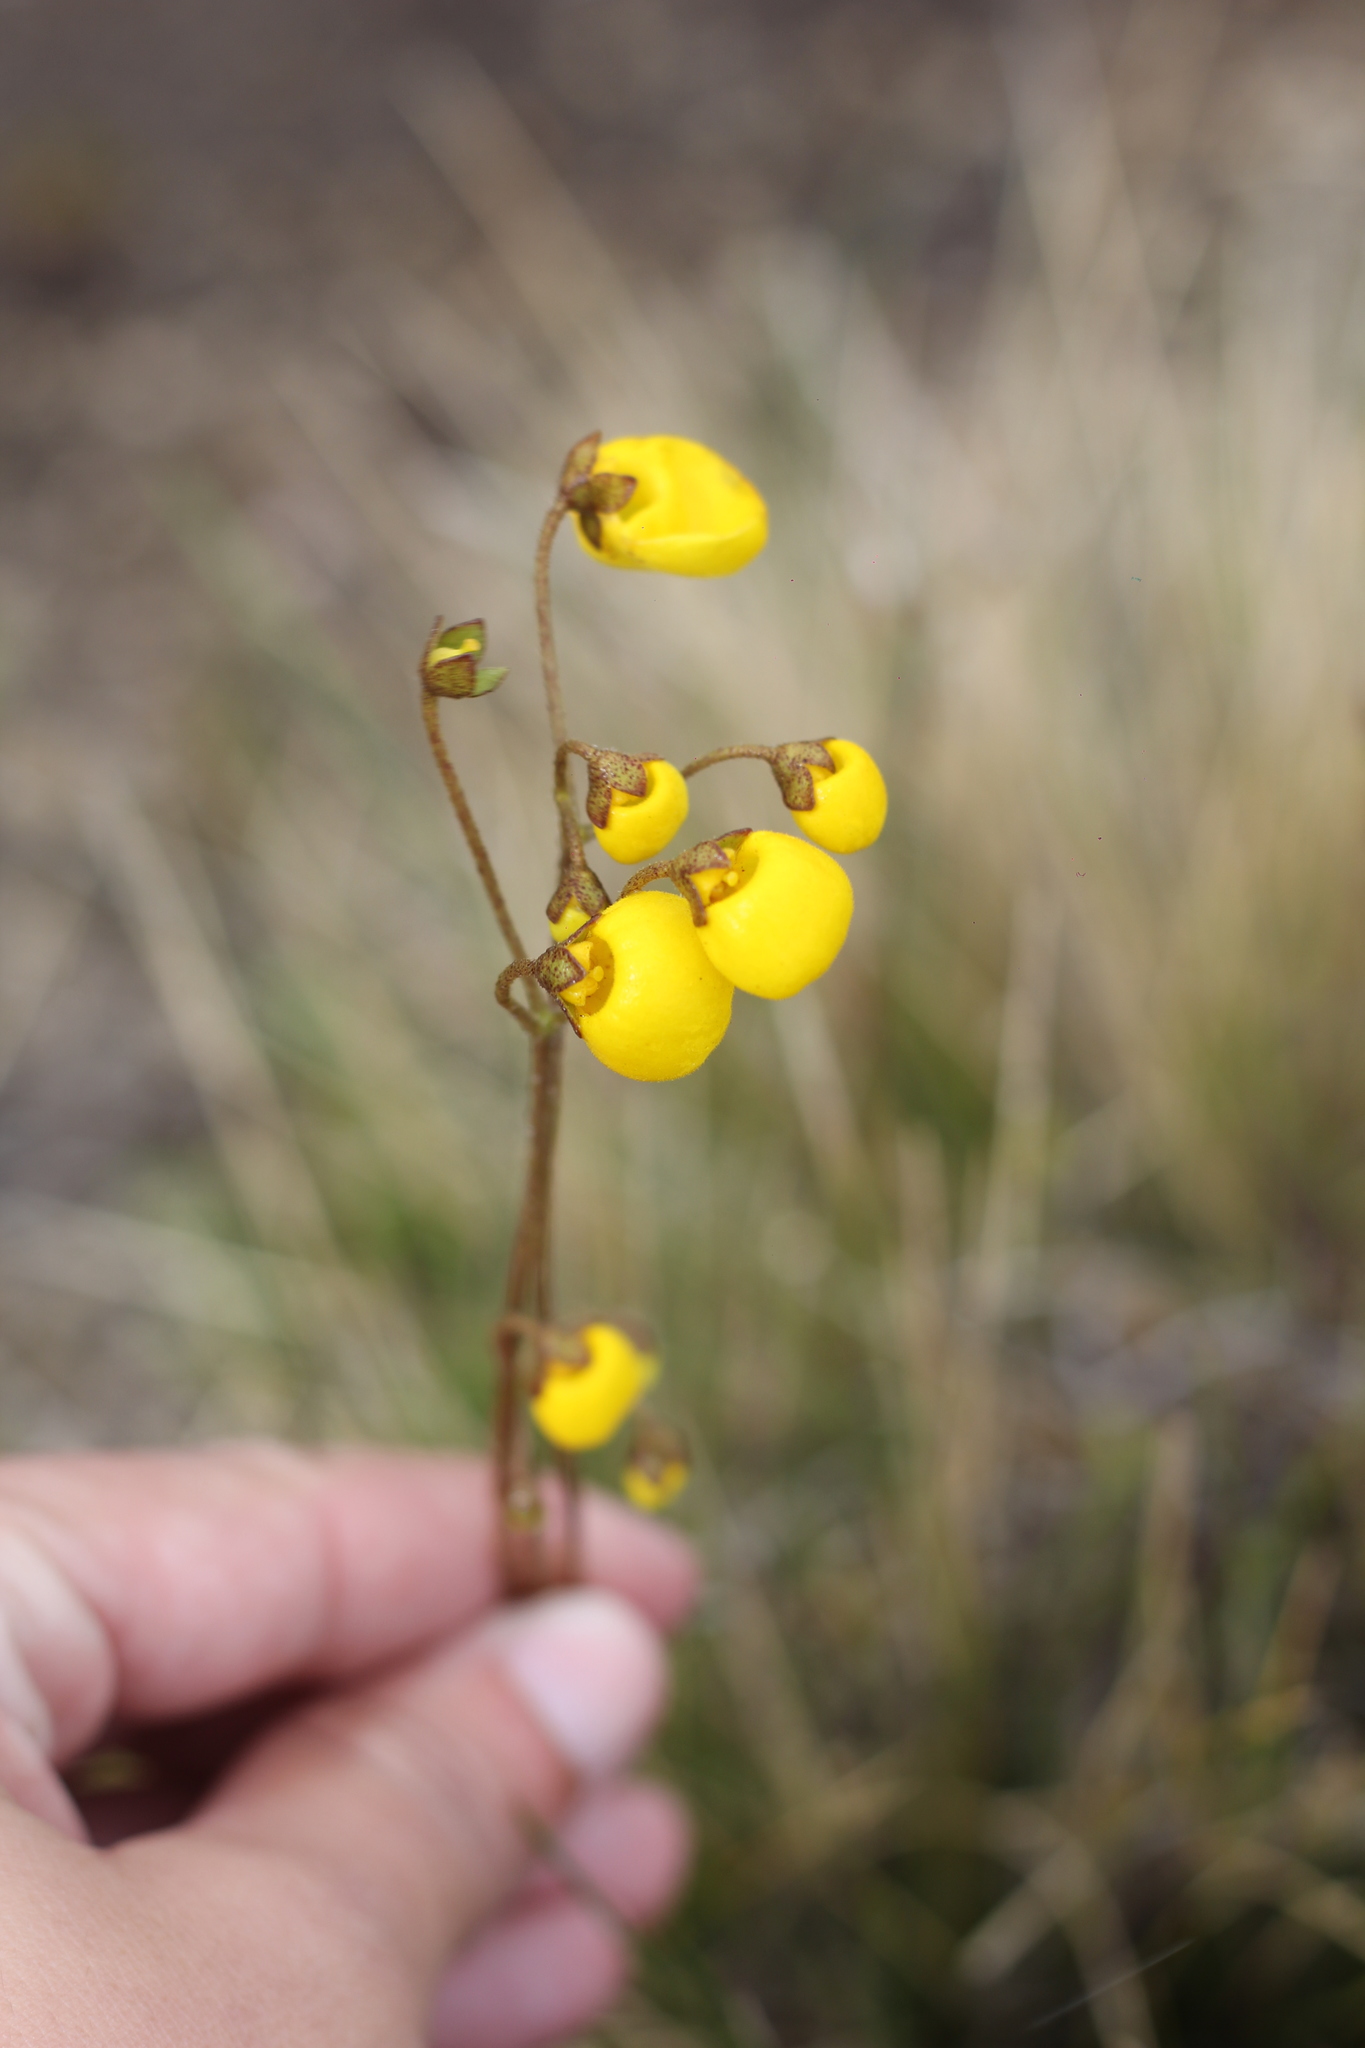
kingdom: Plantae
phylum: Tracheophyta
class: Magnoliopsida
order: Lamiales
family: Calceolariaceae
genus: Calceolaria
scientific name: Calceolaria filicaulis
